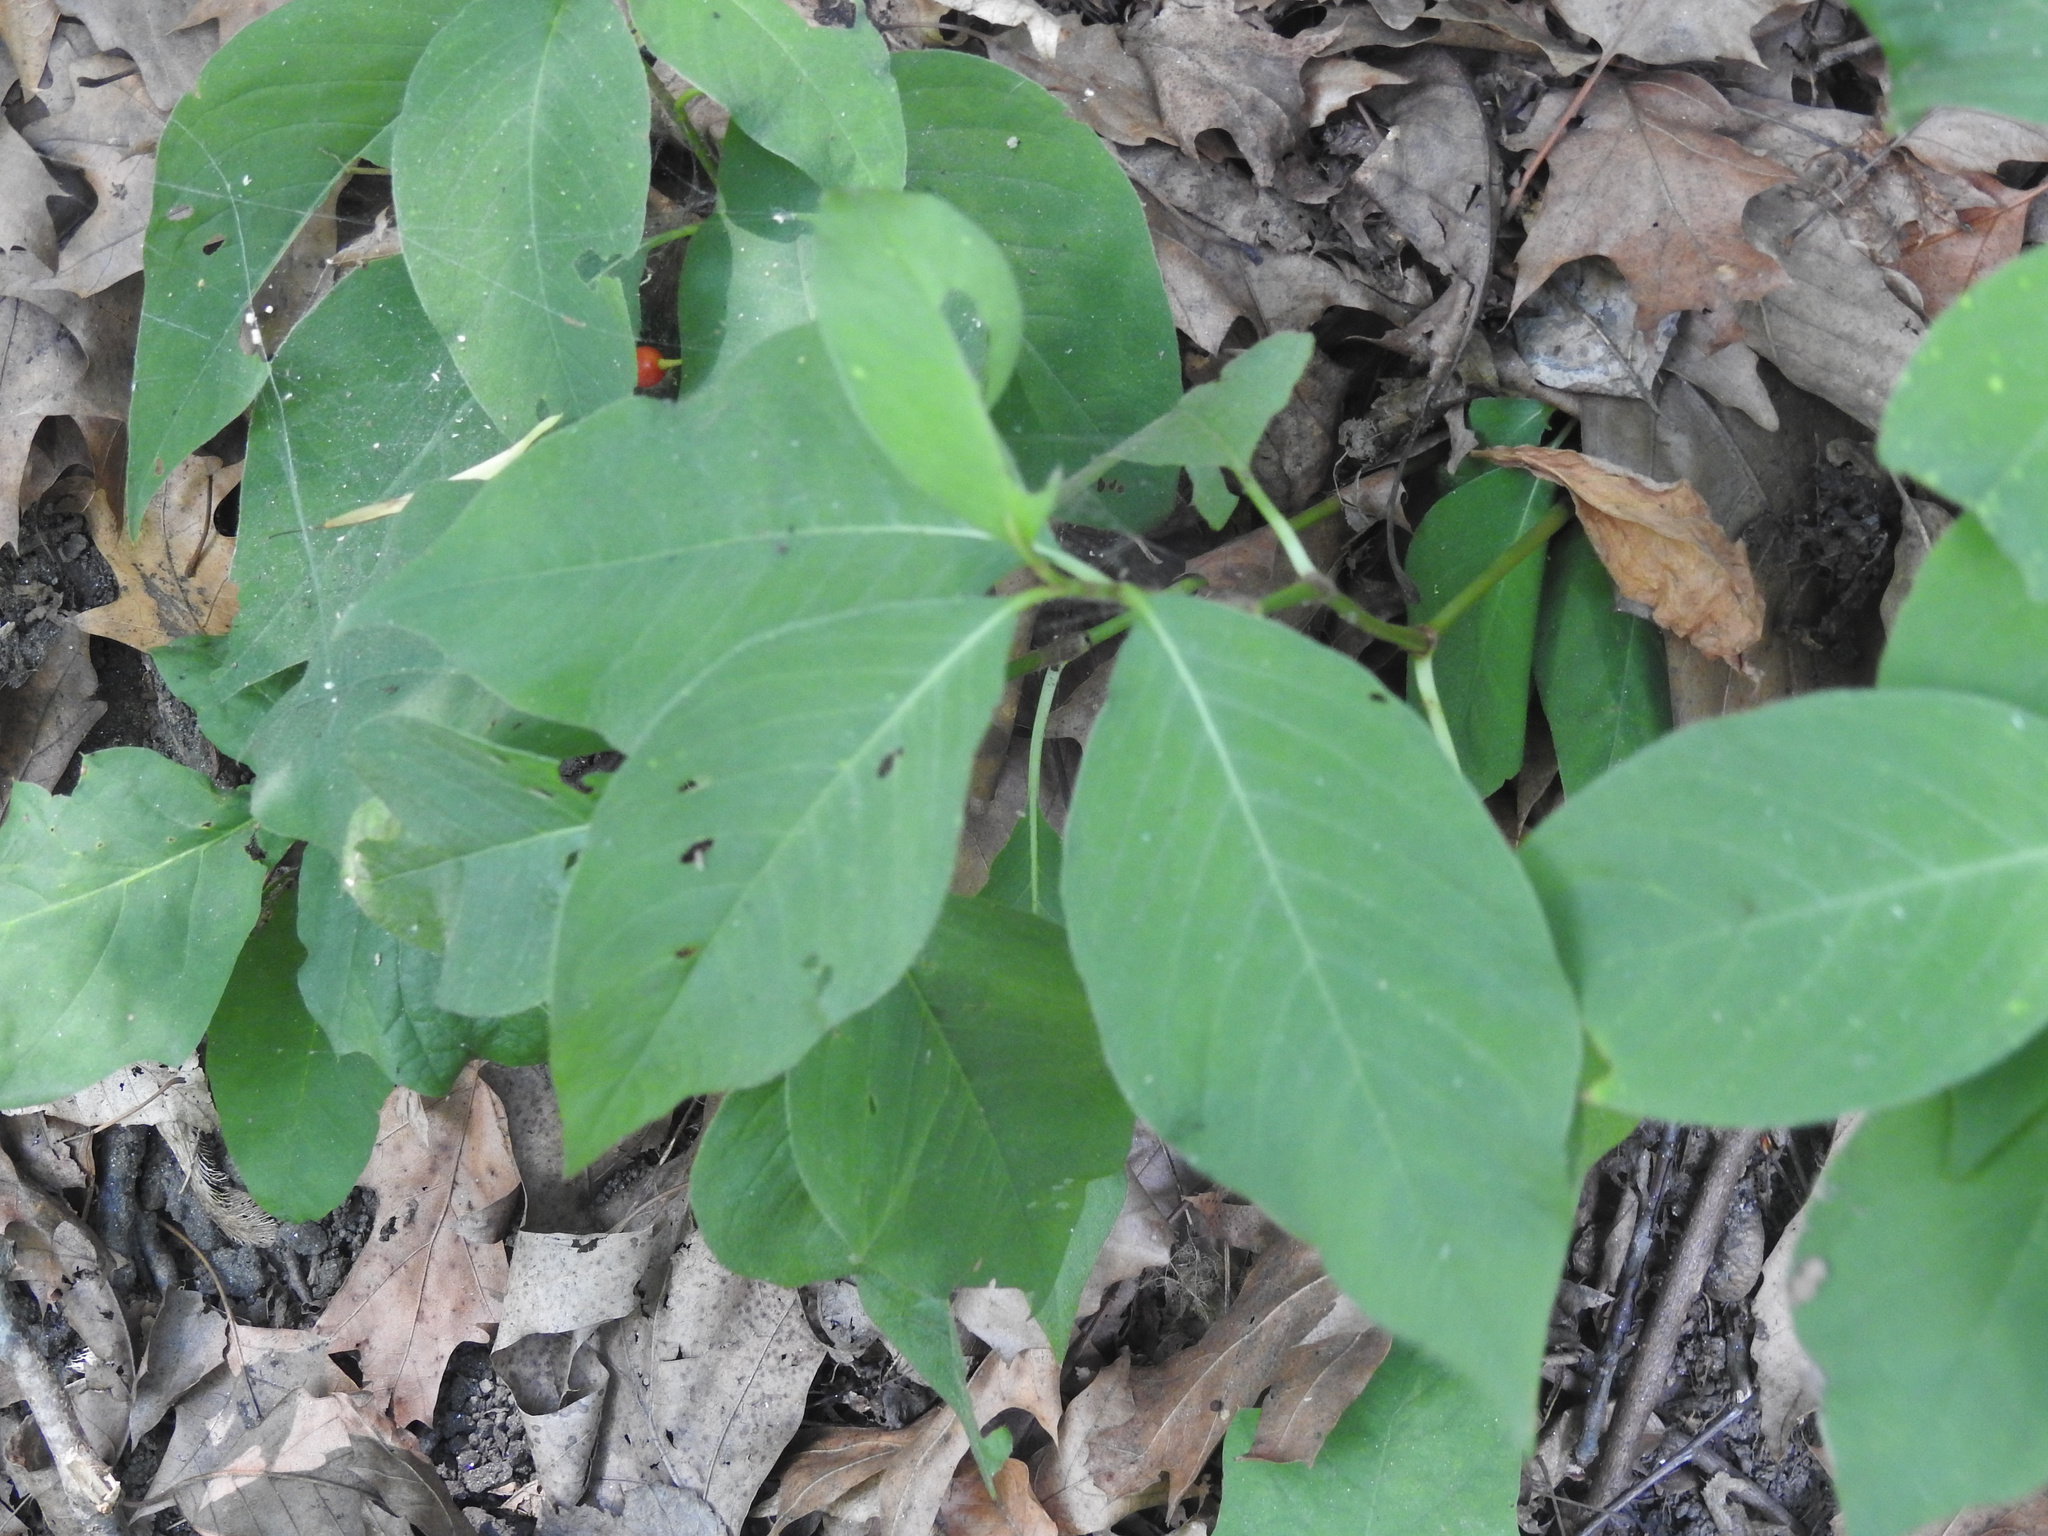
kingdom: Plantae
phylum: Tracheophyta
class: Magnoliopsida
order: Caryophyllales
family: Polygonaceae
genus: Persicaria
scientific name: Persicaria virginiana
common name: Jumpseed
